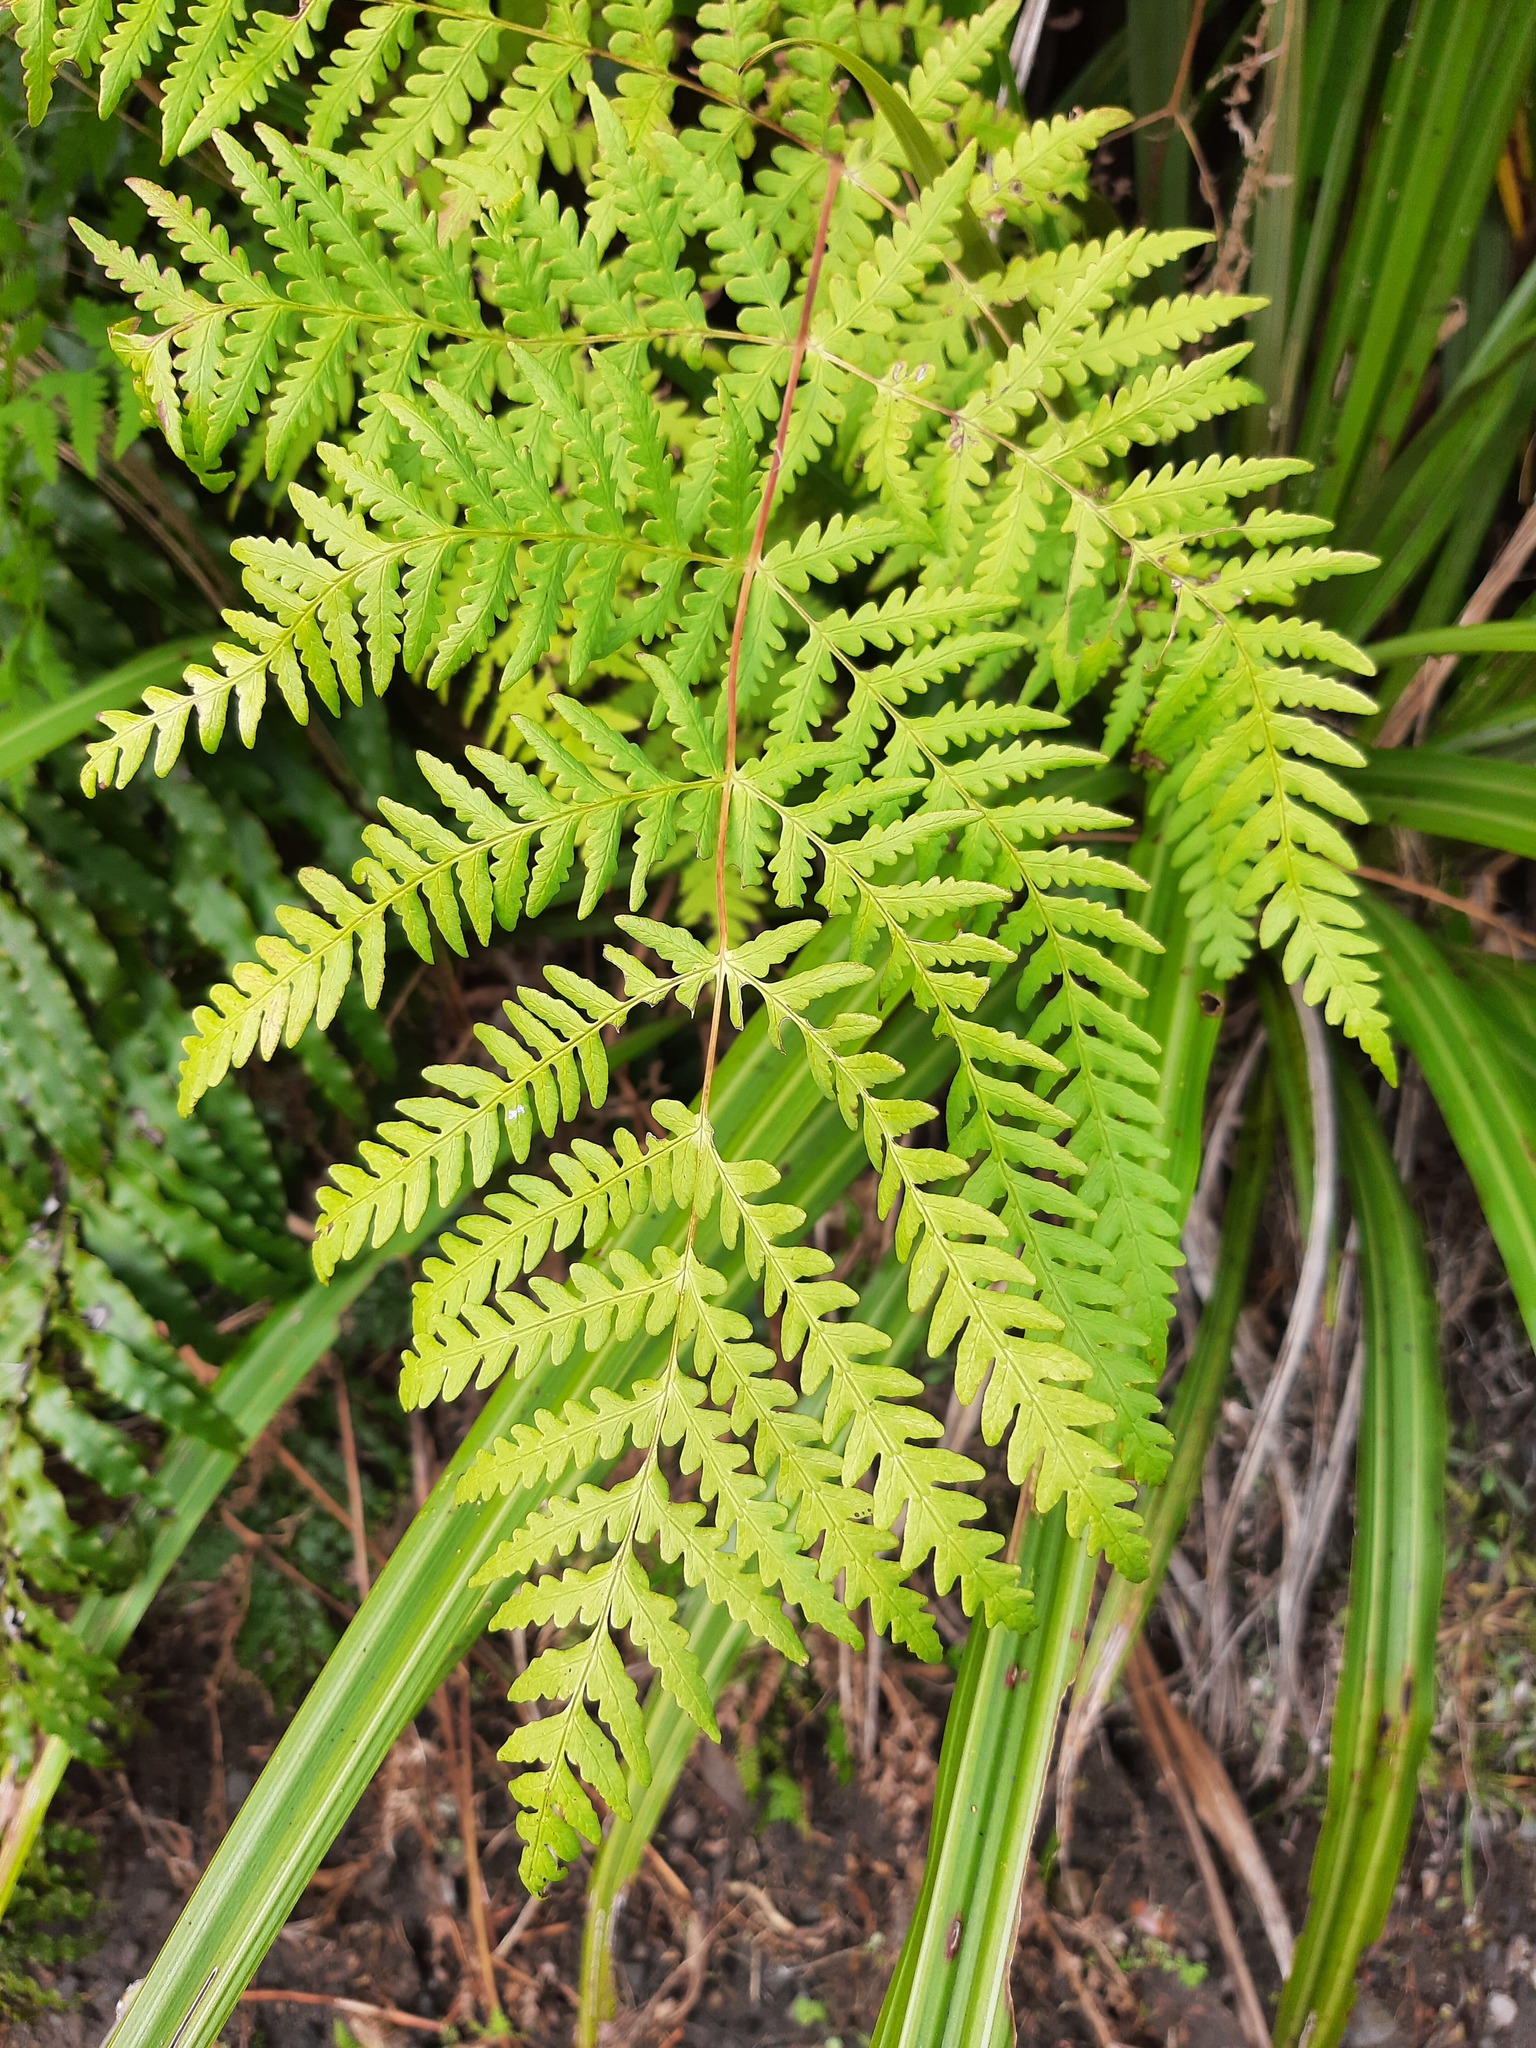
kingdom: Plantae
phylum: Tracheophyta
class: Polypodiopsida
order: Polypodiales
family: Dennstaedtiaceae
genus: Histiopteris
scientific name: Histiopteris incisa
